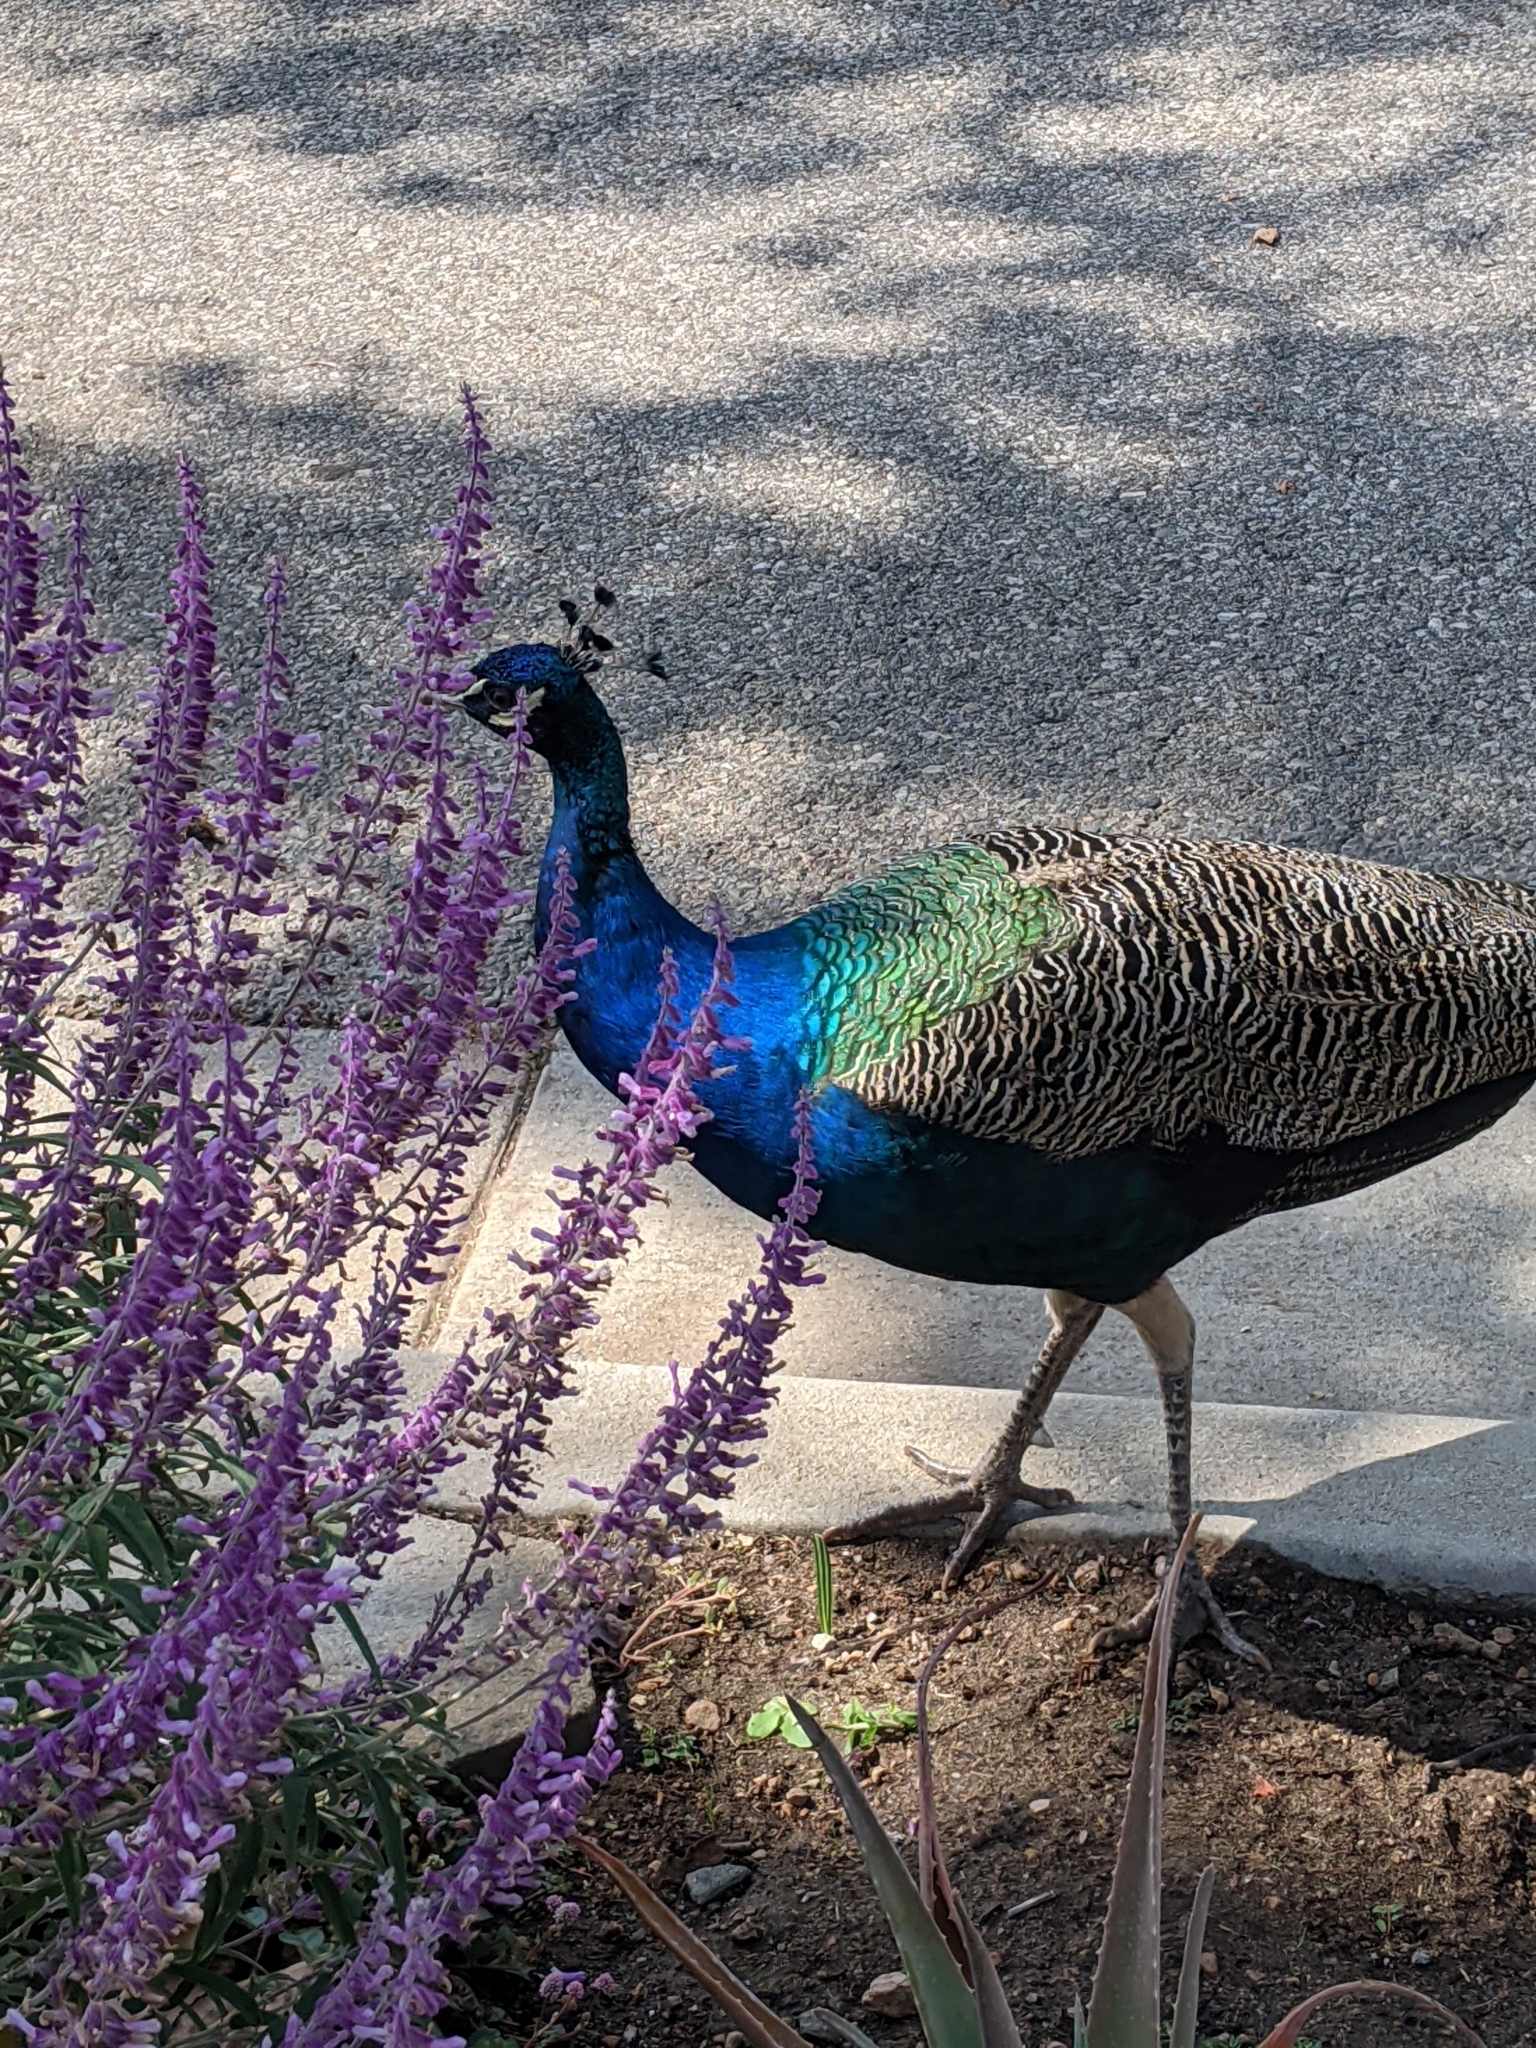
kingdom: Animalia
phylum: Chordata
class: Aves
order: Galliformes
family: Phasianidae
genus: Pavo
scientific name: Pavo cristatus
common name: Indian peafowl
